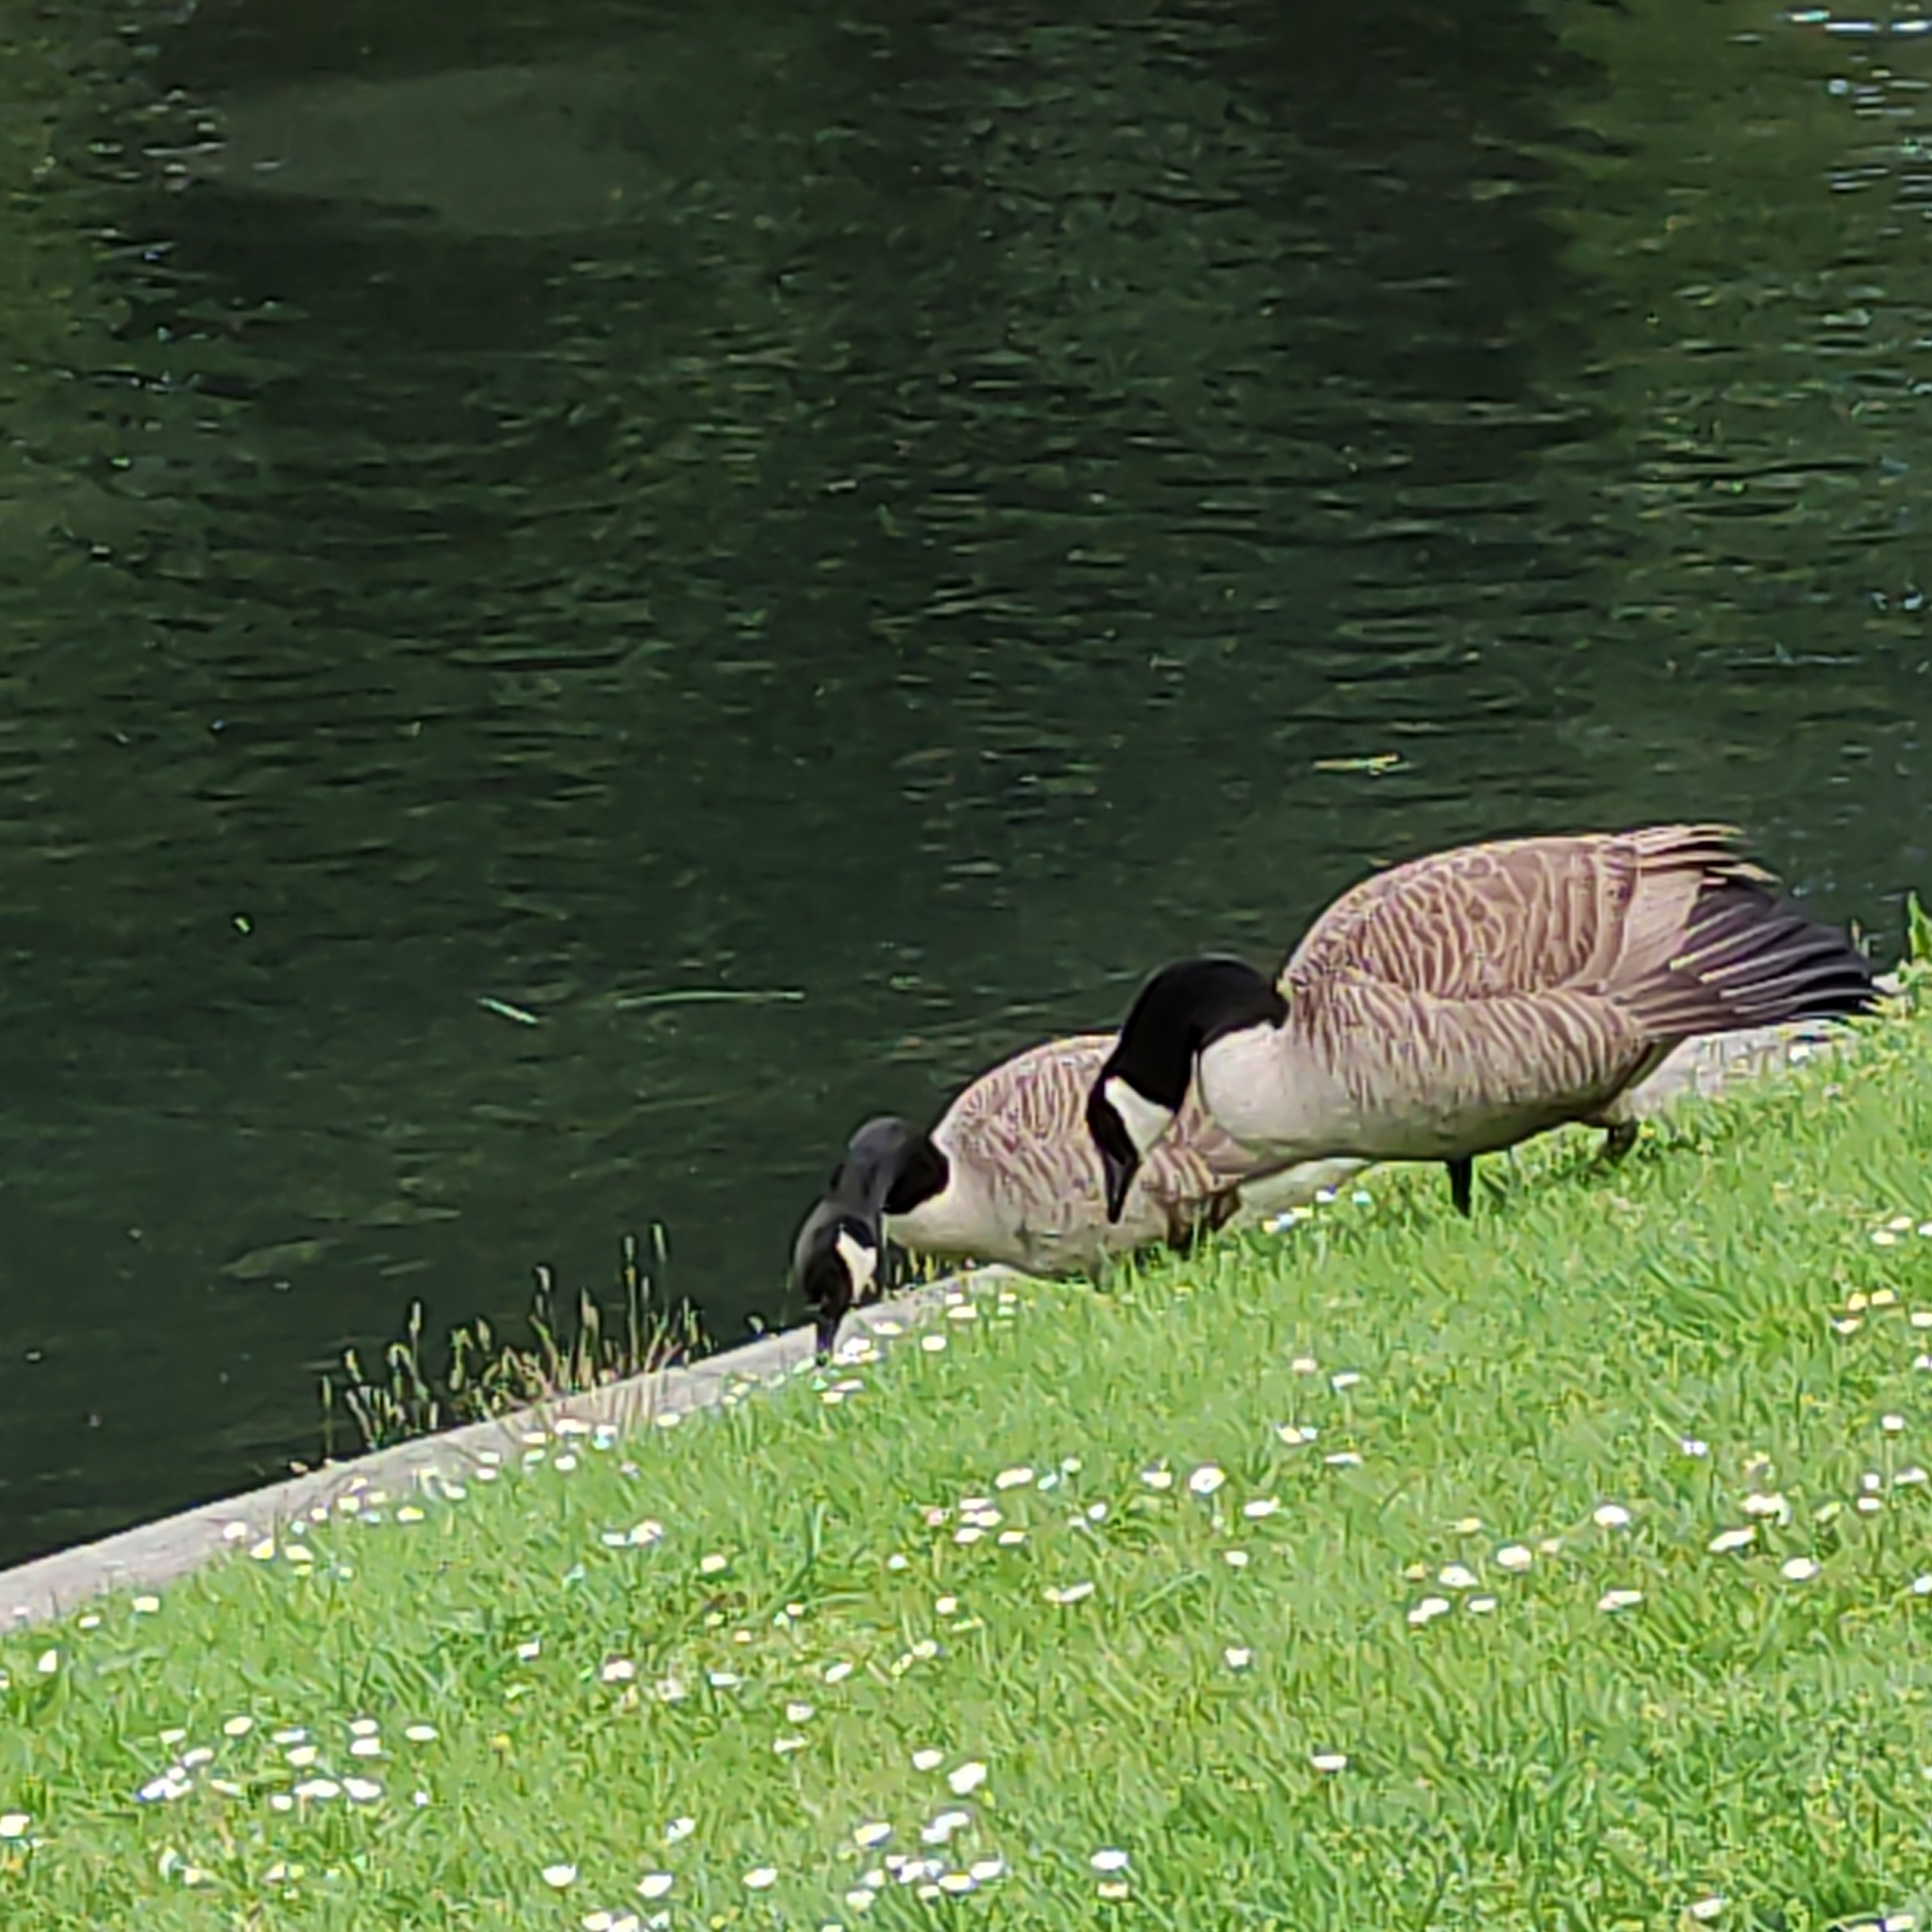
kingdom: Animalia
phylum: Chordata
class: Aves
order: Anseriformes
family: Anatidae
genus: Branta
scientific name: Branta canadensis
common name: Canada goose
